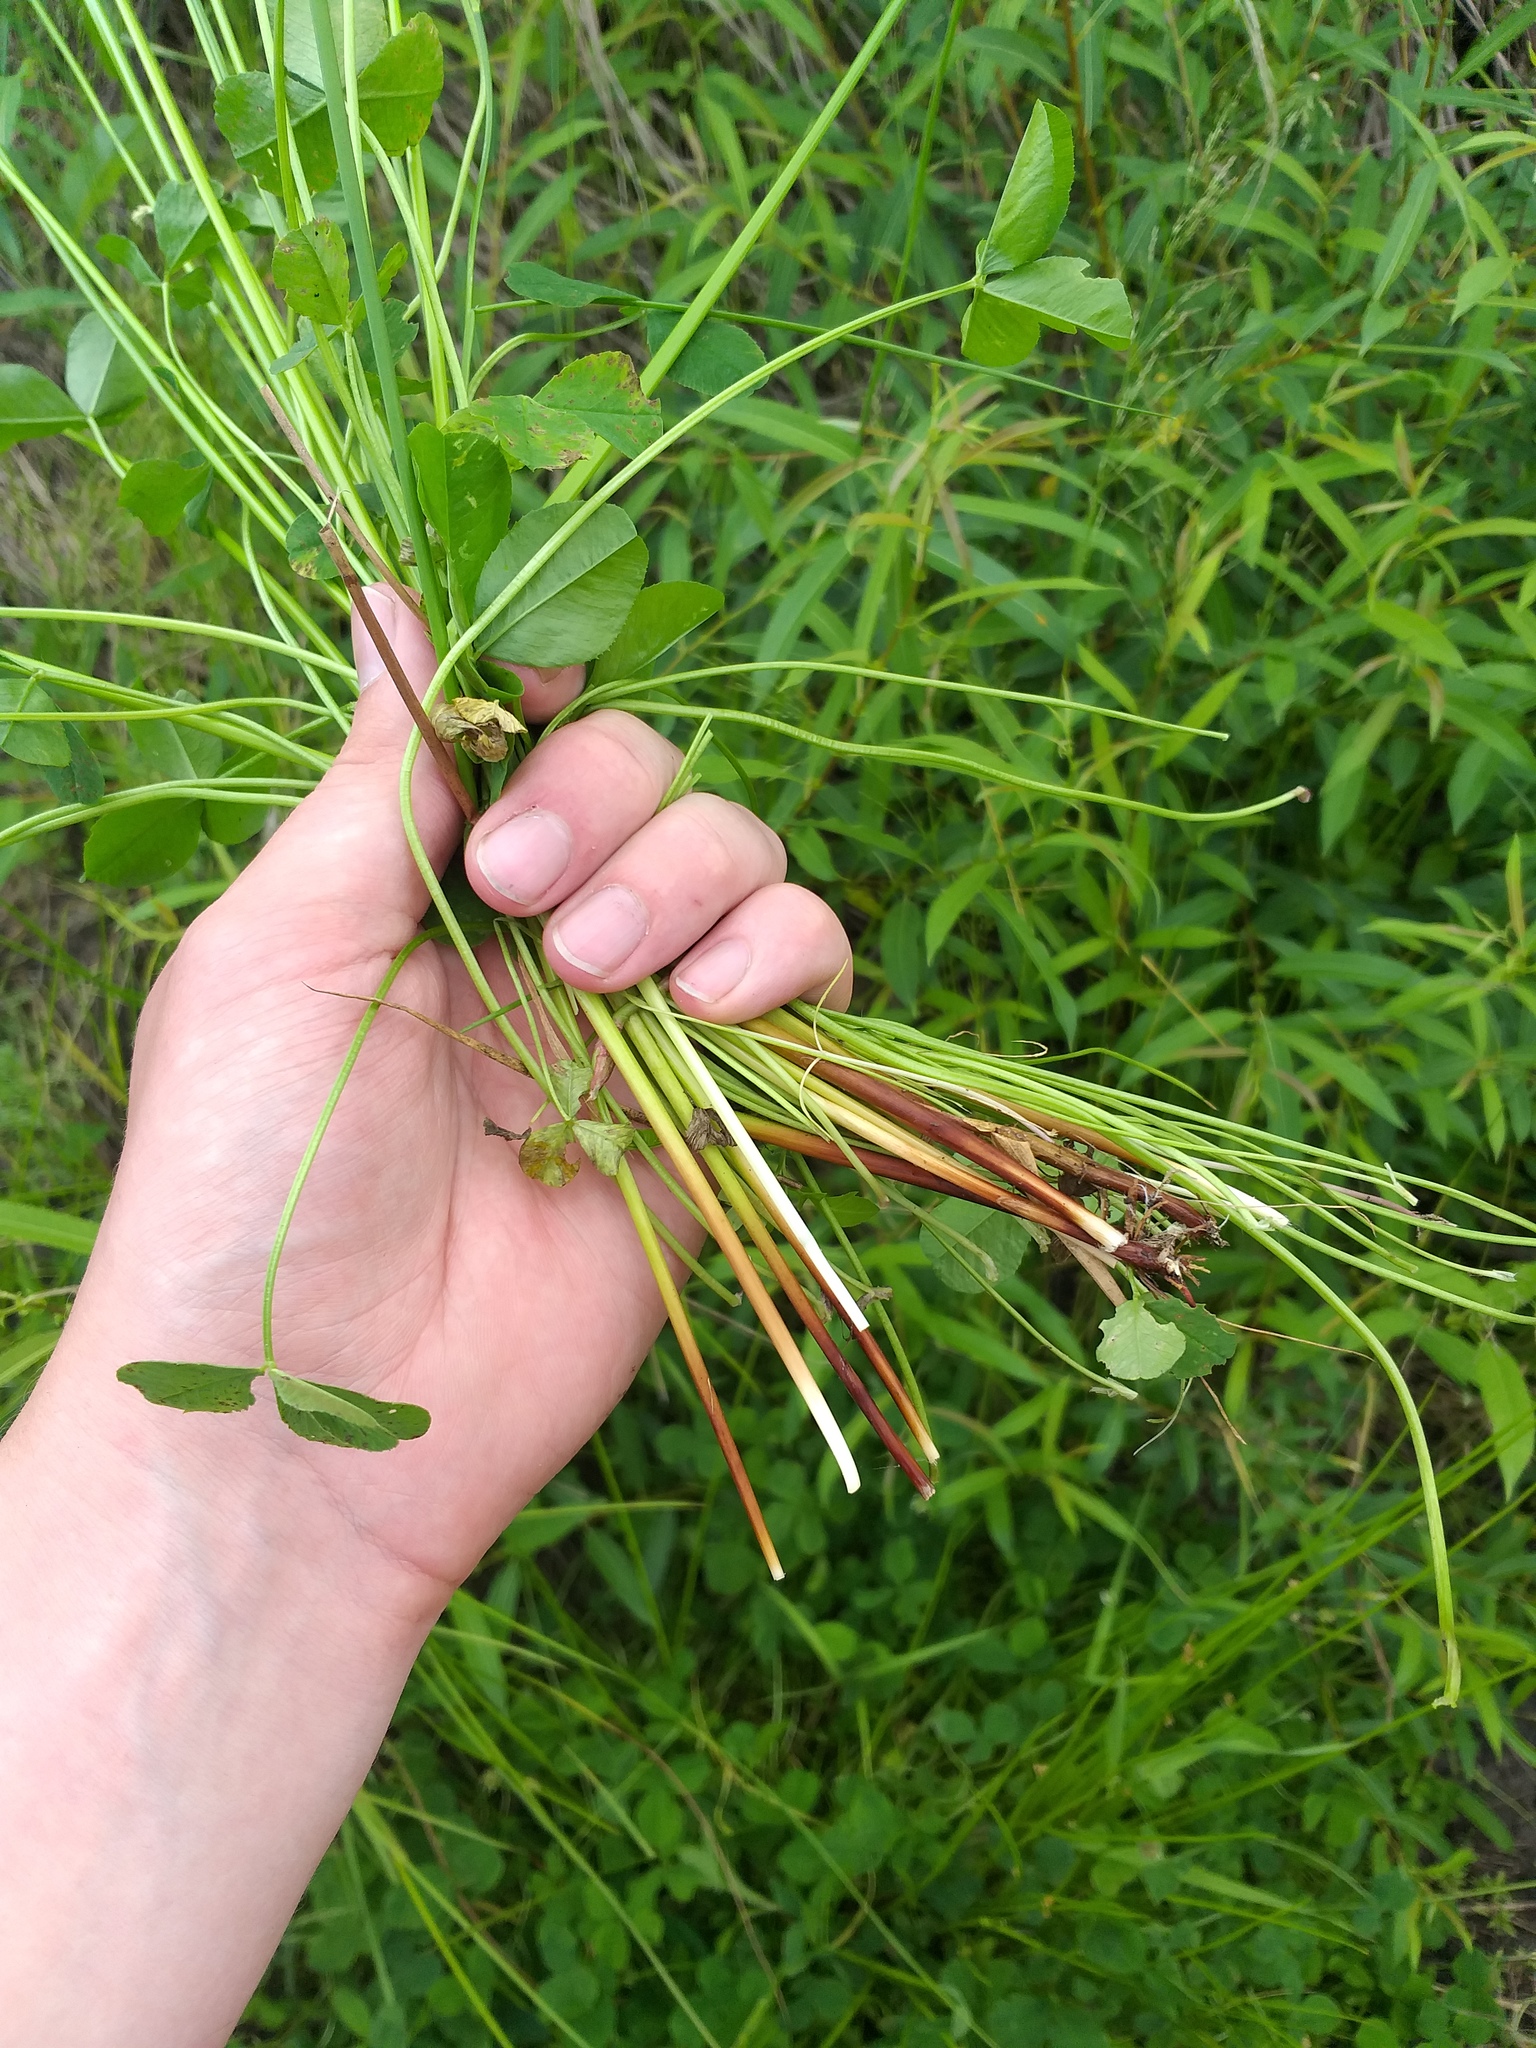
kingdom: Plantae
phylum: Tracheophyta
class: Liliopsida
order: Poales
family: Juncaceae
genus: Juncus
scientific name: Juncus effusus
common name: Soft rush
